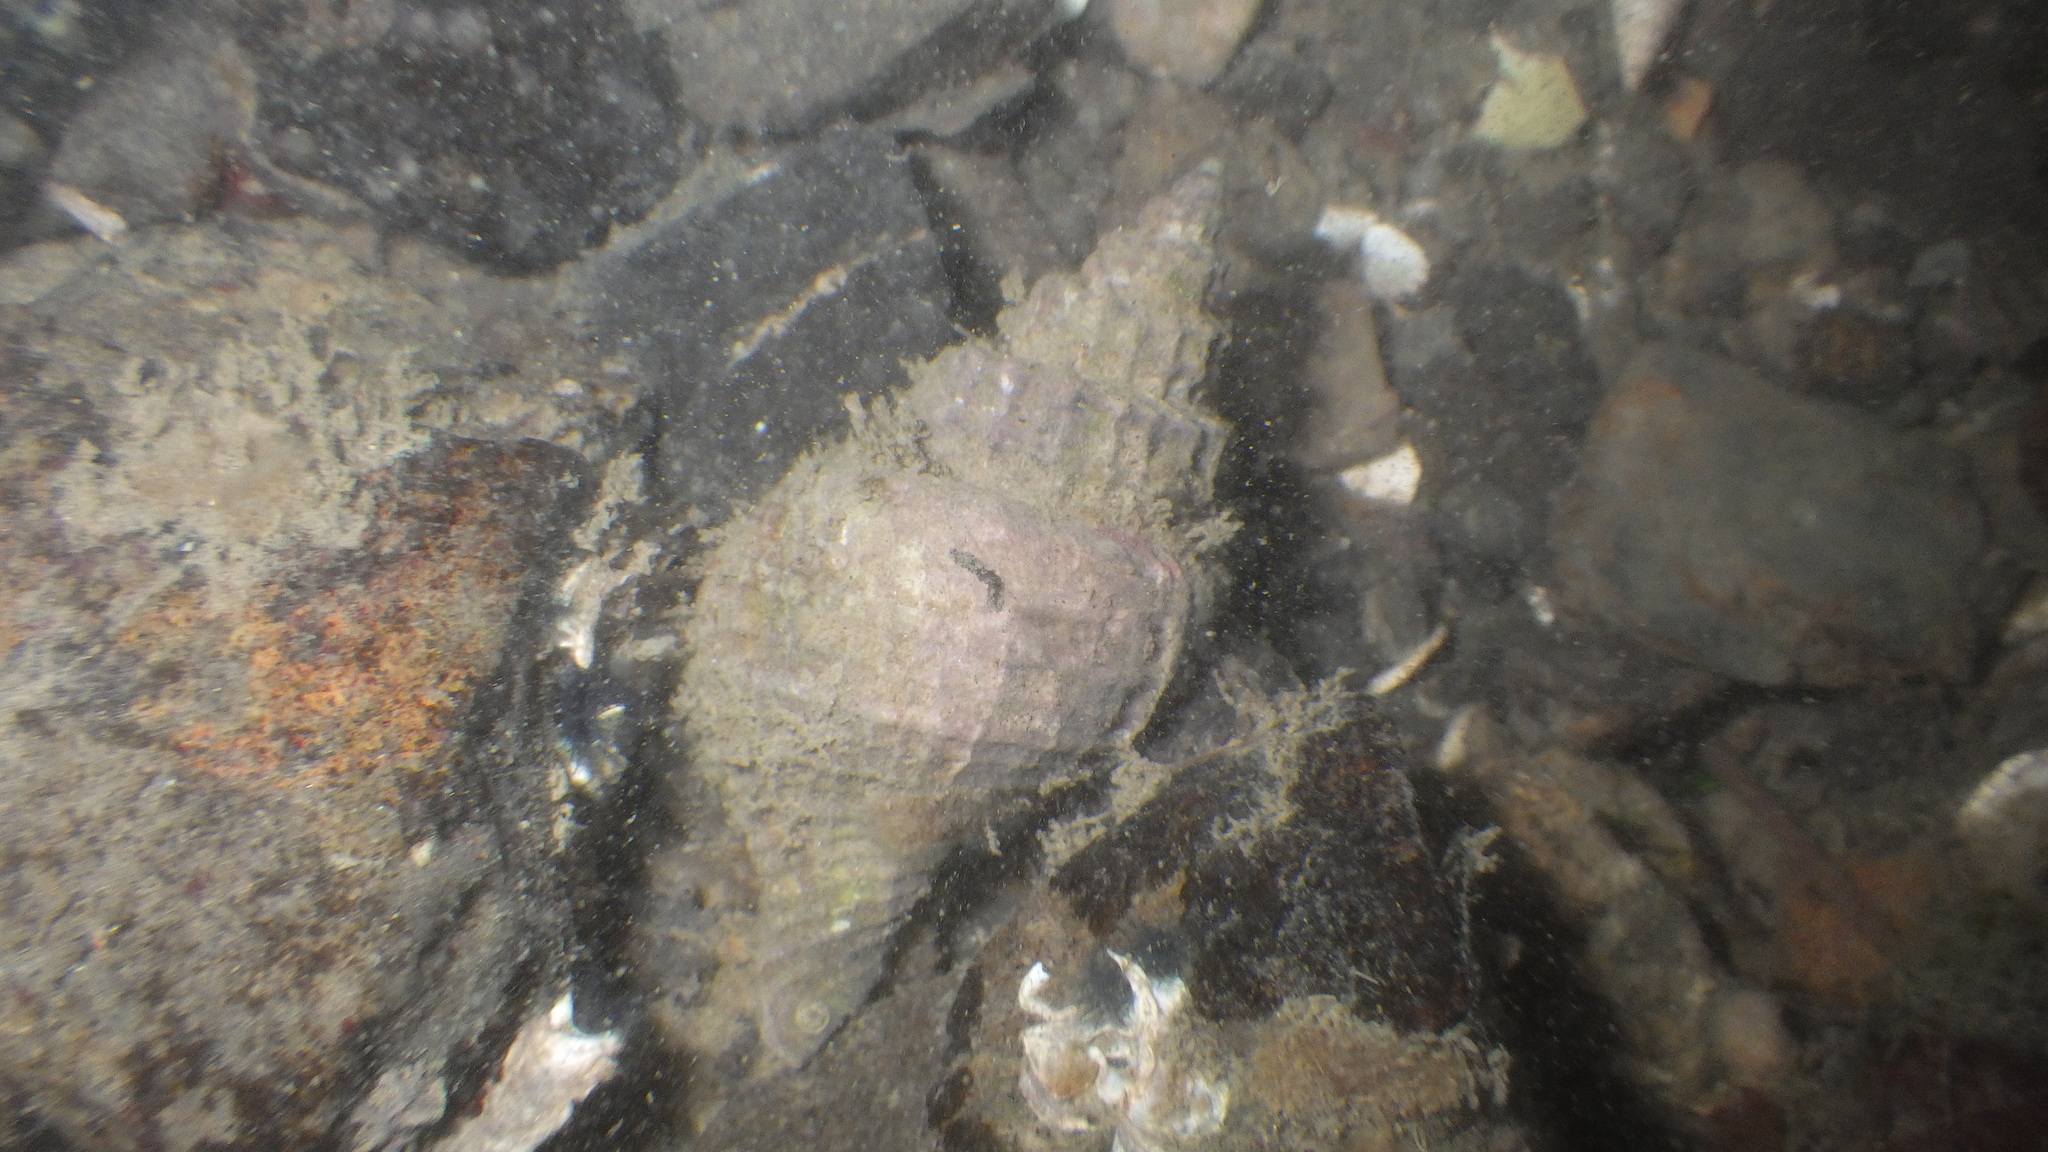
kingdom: Animalia
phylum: Mollusca
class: Gastropoda
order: Neogastropoda
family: Muricidae
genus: Zeatrophon
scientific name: Zeatrophon ambiguus
